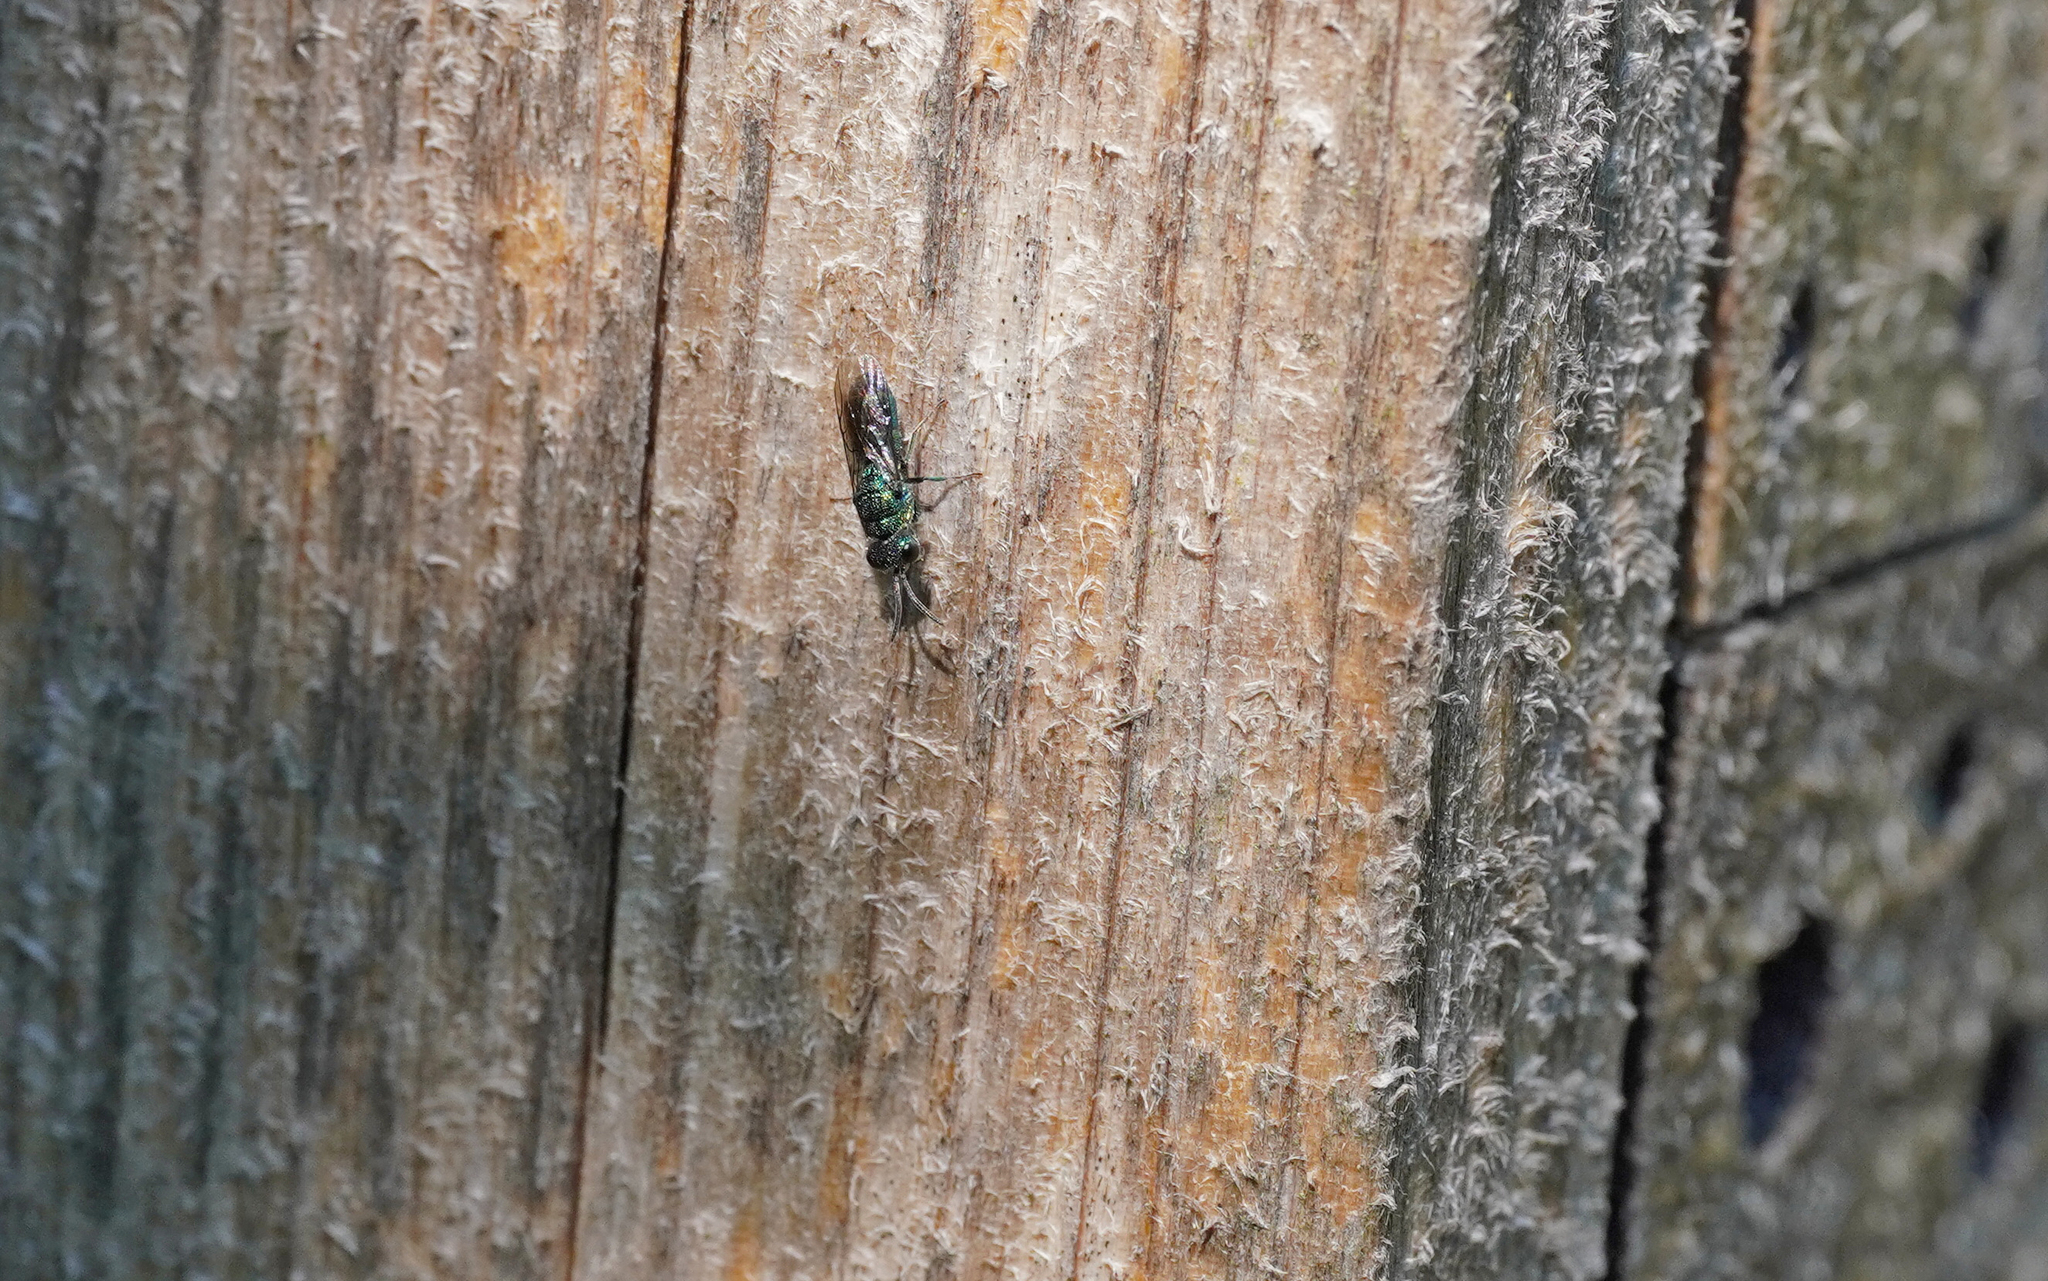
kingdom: Animalia
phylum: Arthropoda
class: Insecta
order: Hymenoptera
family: Pompilidae
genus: Pepsis
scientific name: Pepsis cyanea
